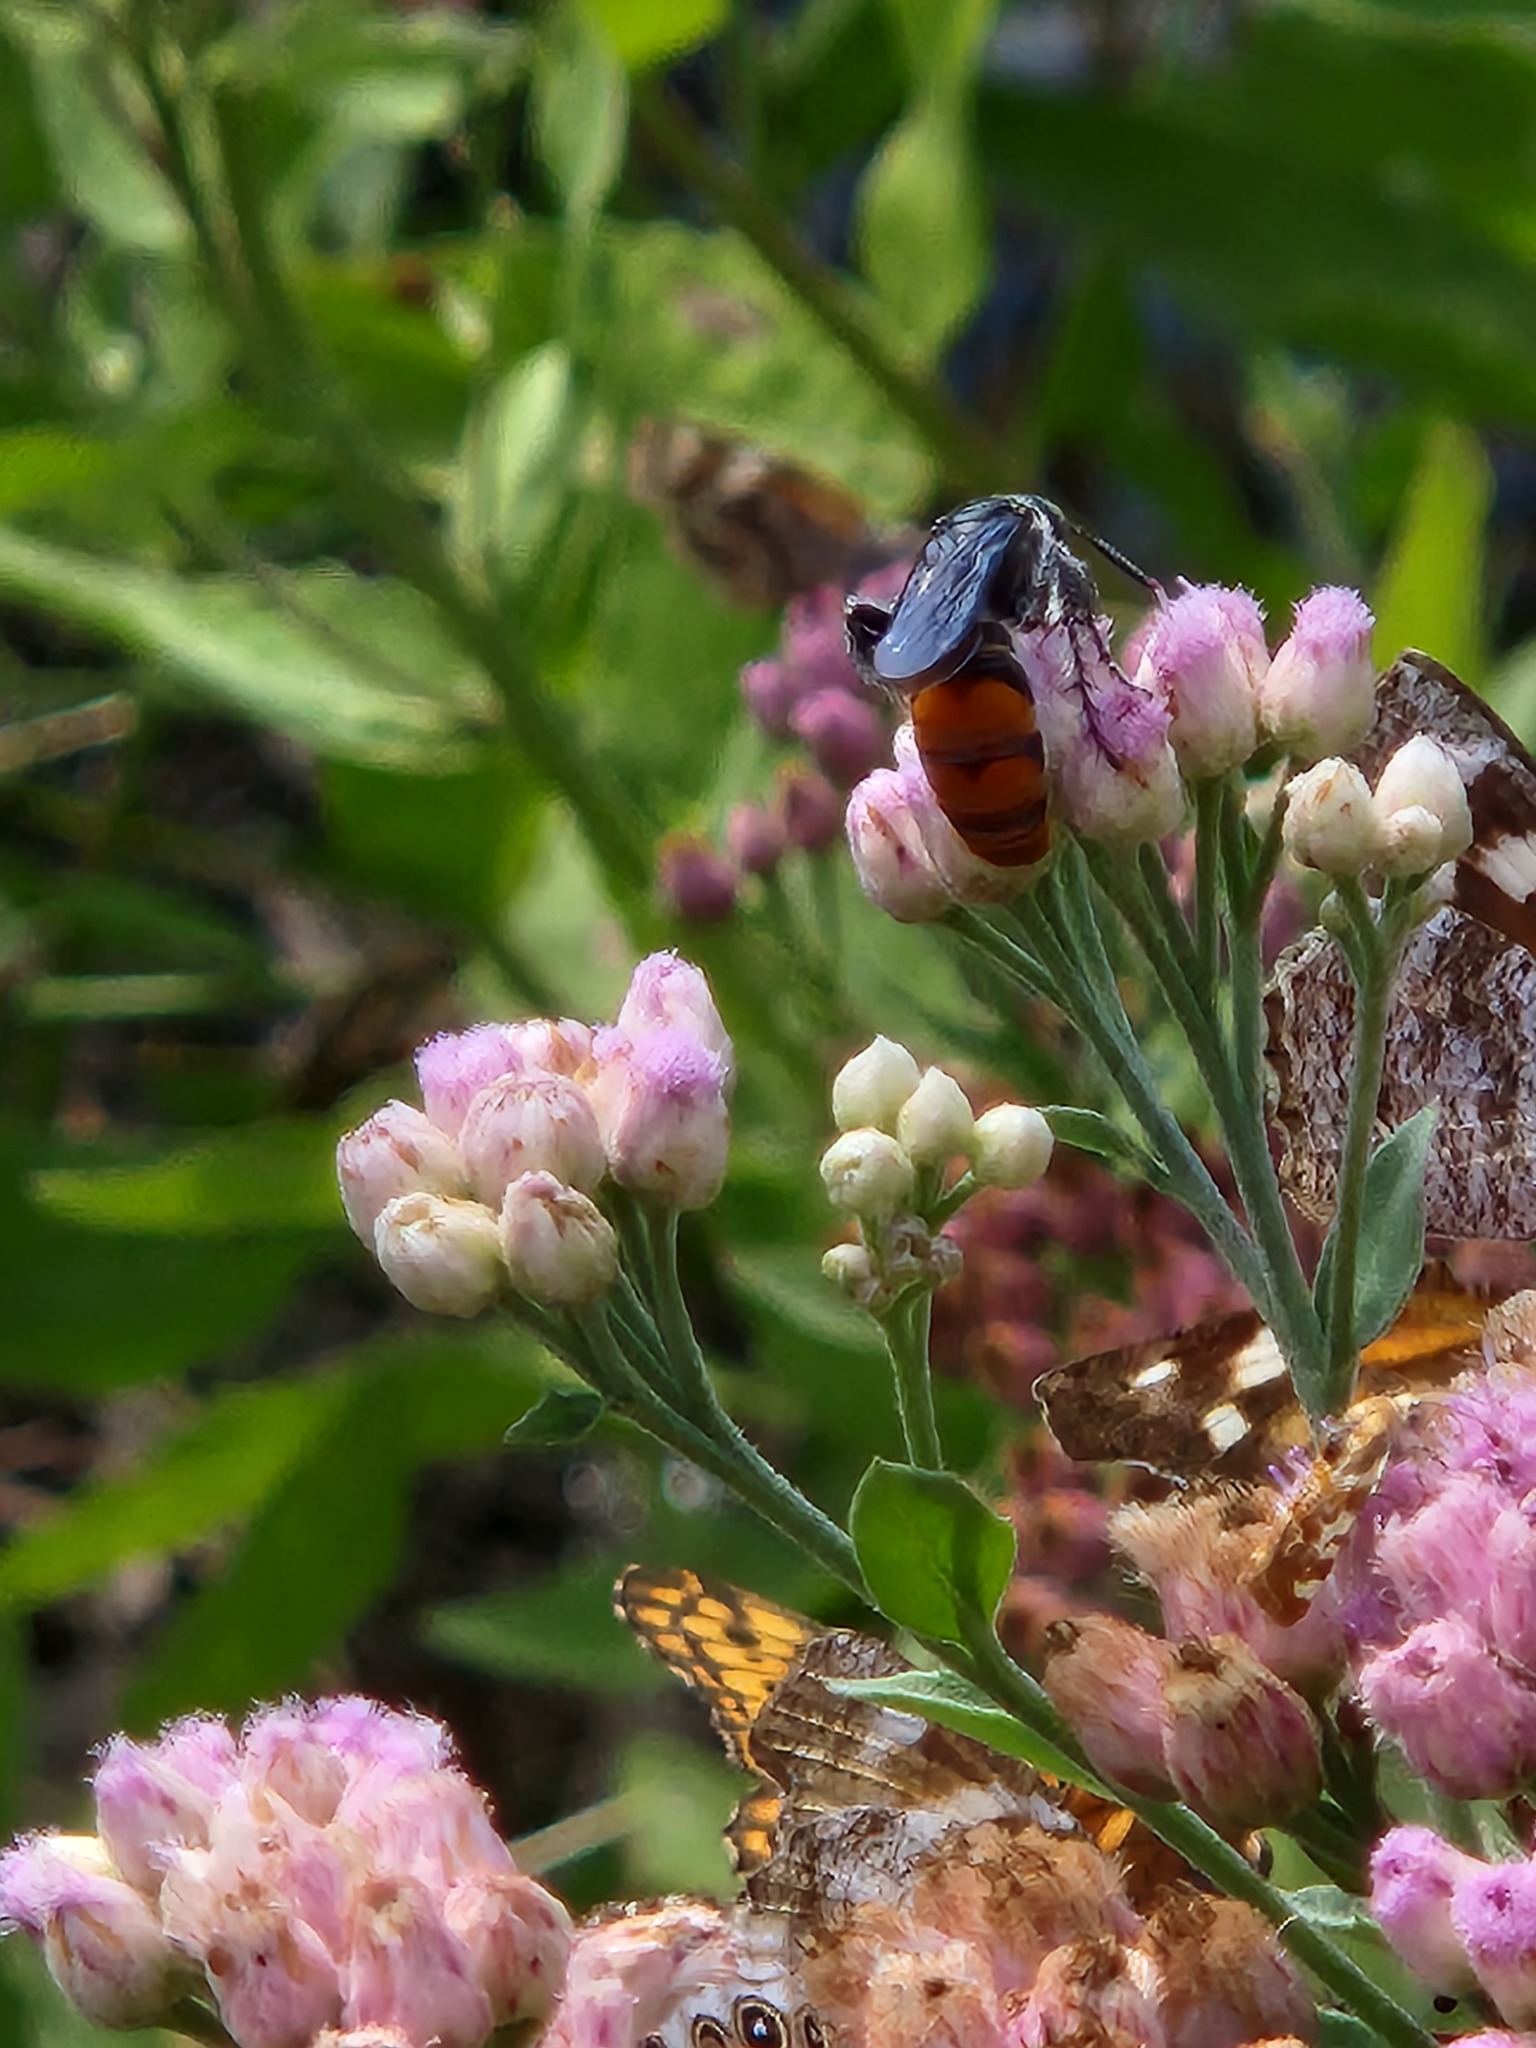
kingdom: Animalia
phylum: Arthropoda
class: Insecta
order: Hymenoptera
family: Scoliidae
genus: Dielis
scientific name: Dielis tolteca
